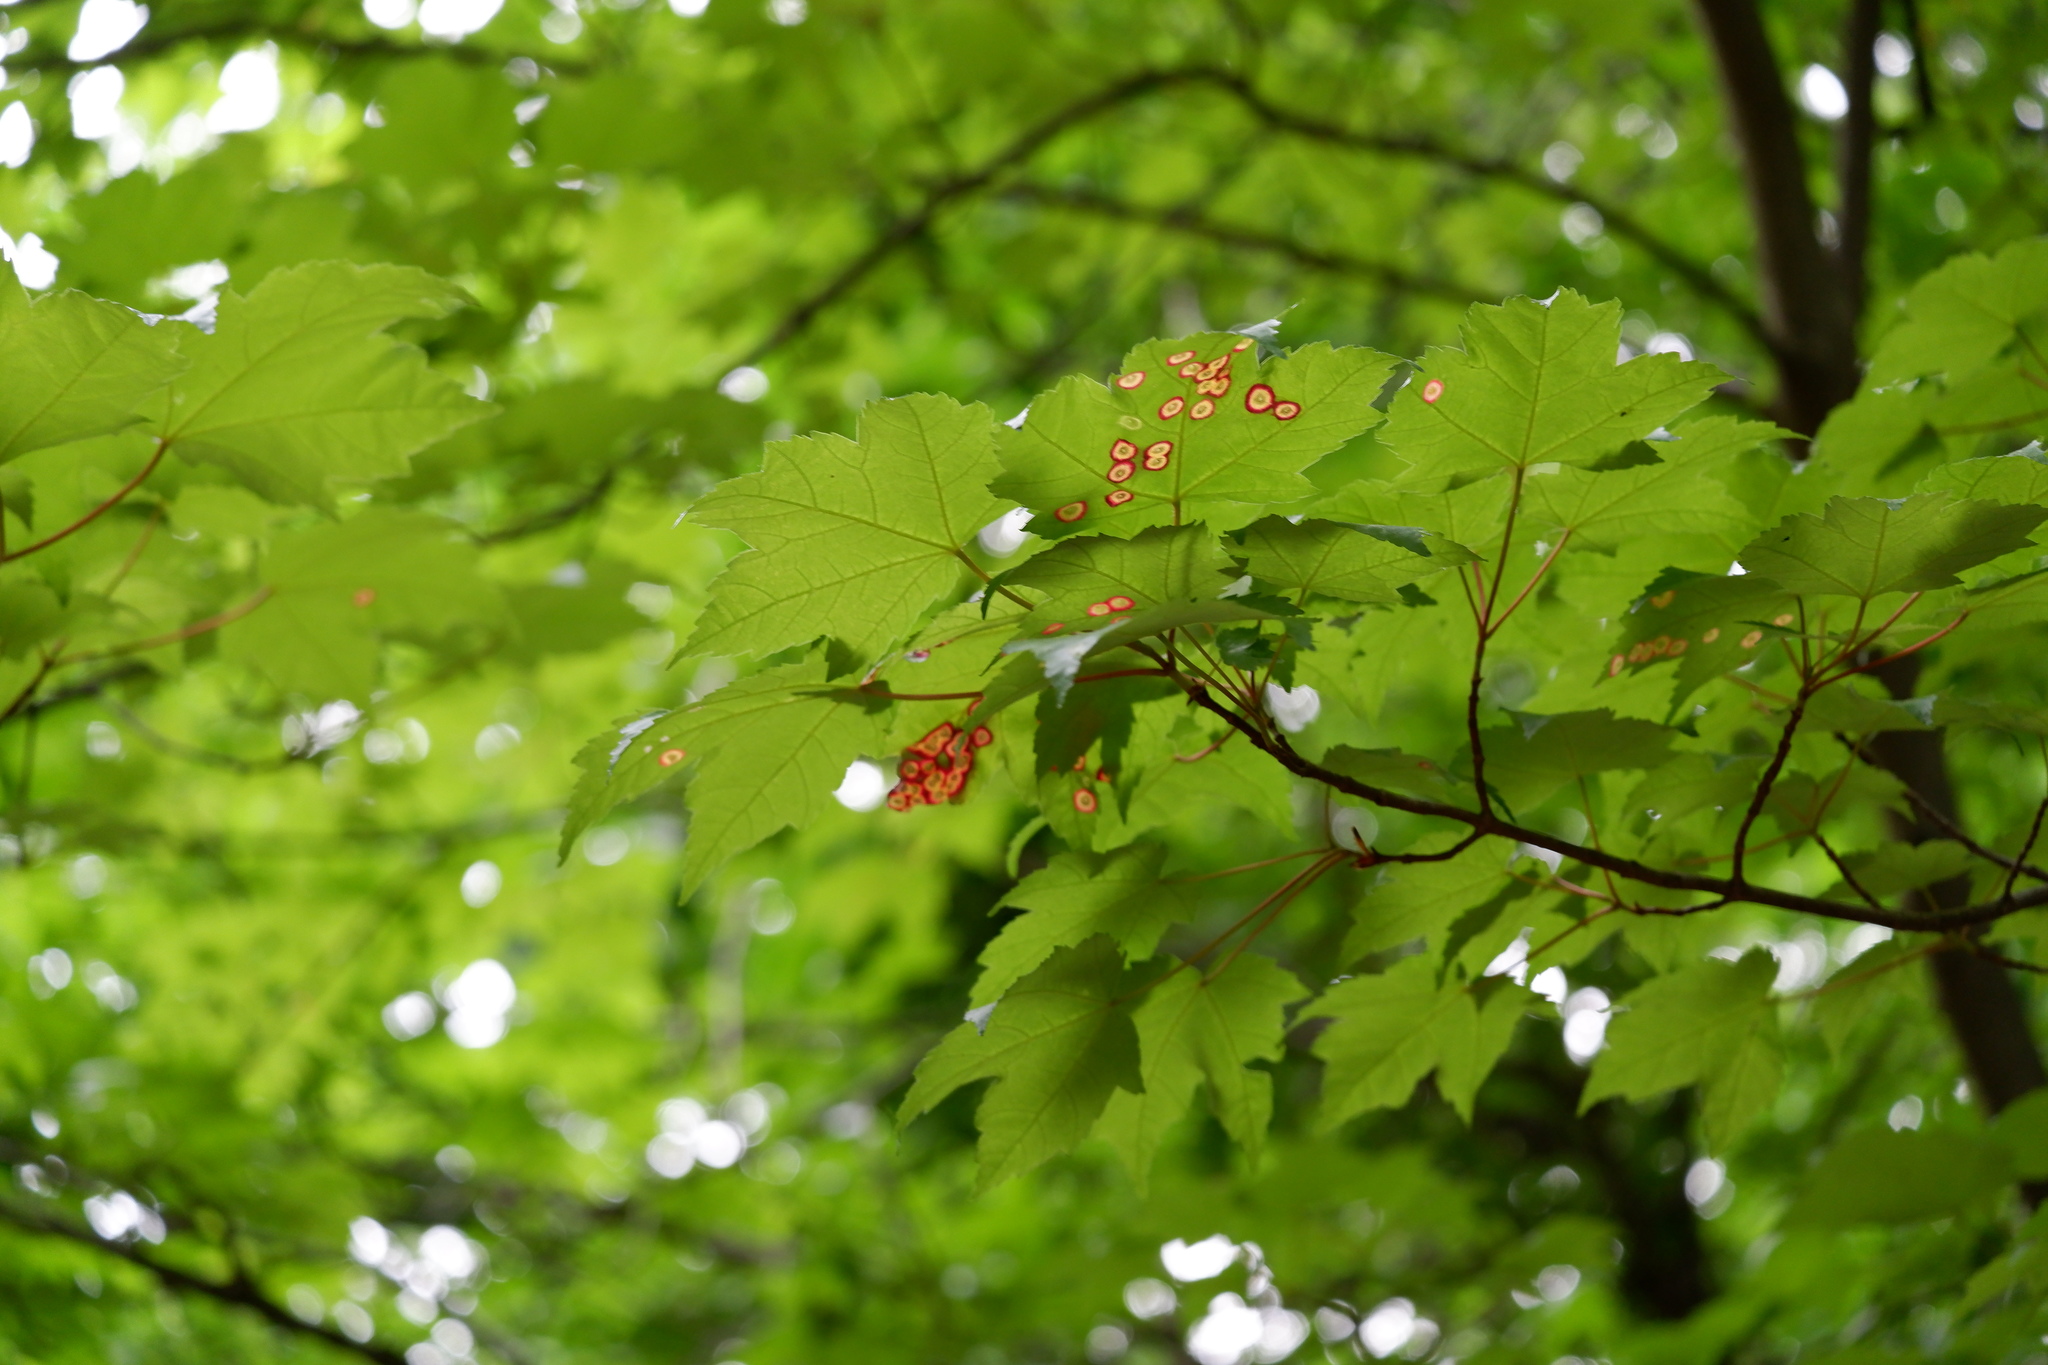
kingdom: Animalia
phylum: Arthropoda
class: Insecta
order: Diptera
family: Cecidomyiidae
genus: Acericecis
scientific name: Acericecis ocellaris
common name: Ocellate gall midge
